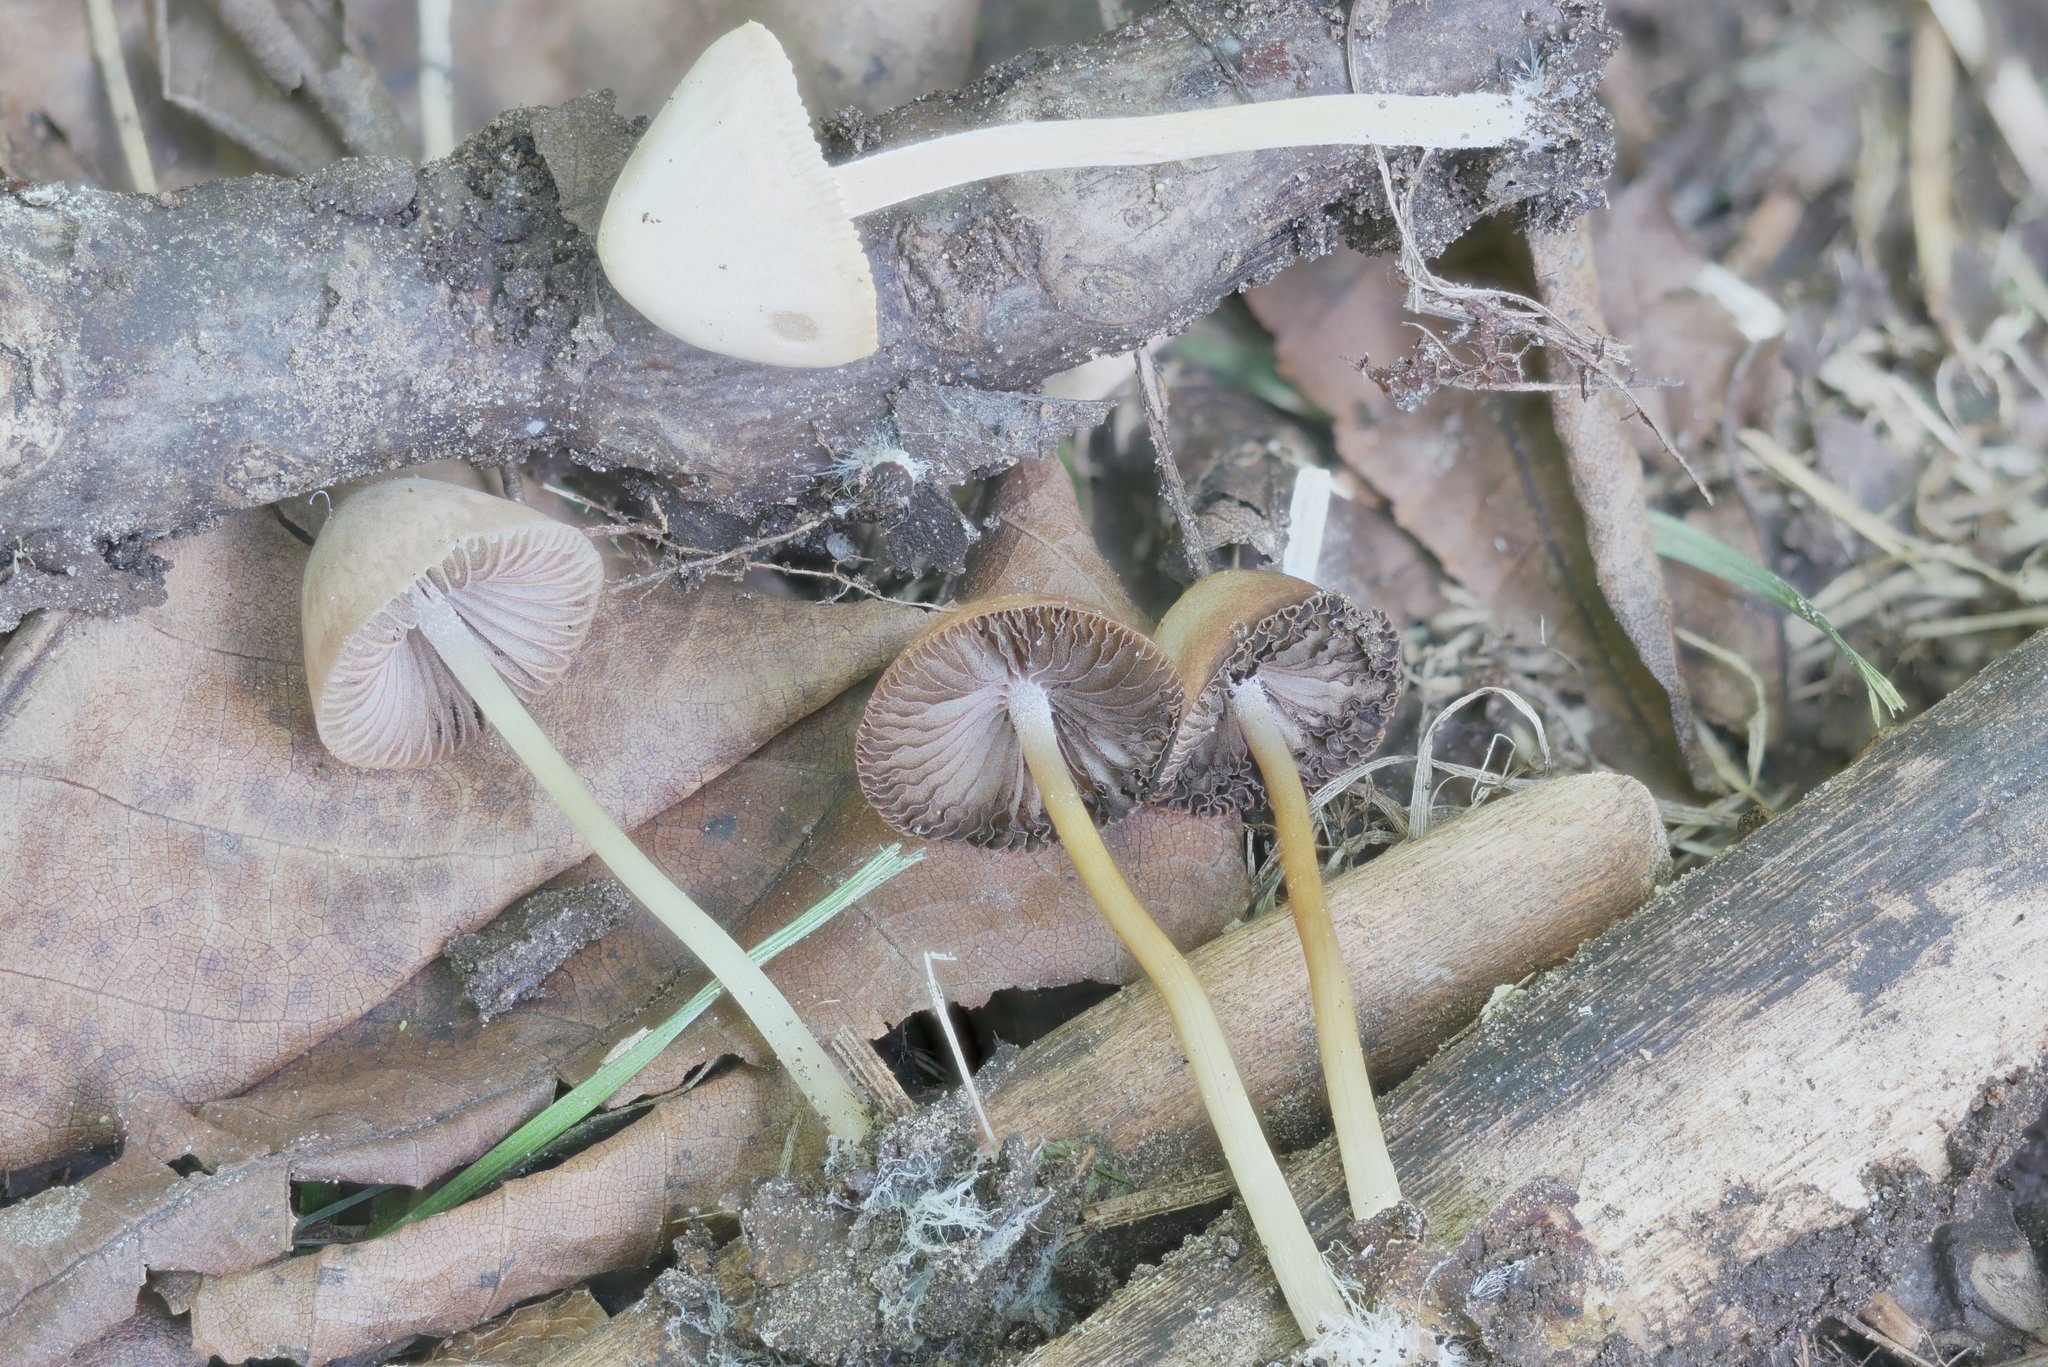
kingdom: Fungi
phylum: Basidiomycota
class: Agaricomycetes
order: Agaricales
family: Psathyrellaceae
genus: Psathyrella
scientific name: Psathyrella pseudogracilis
